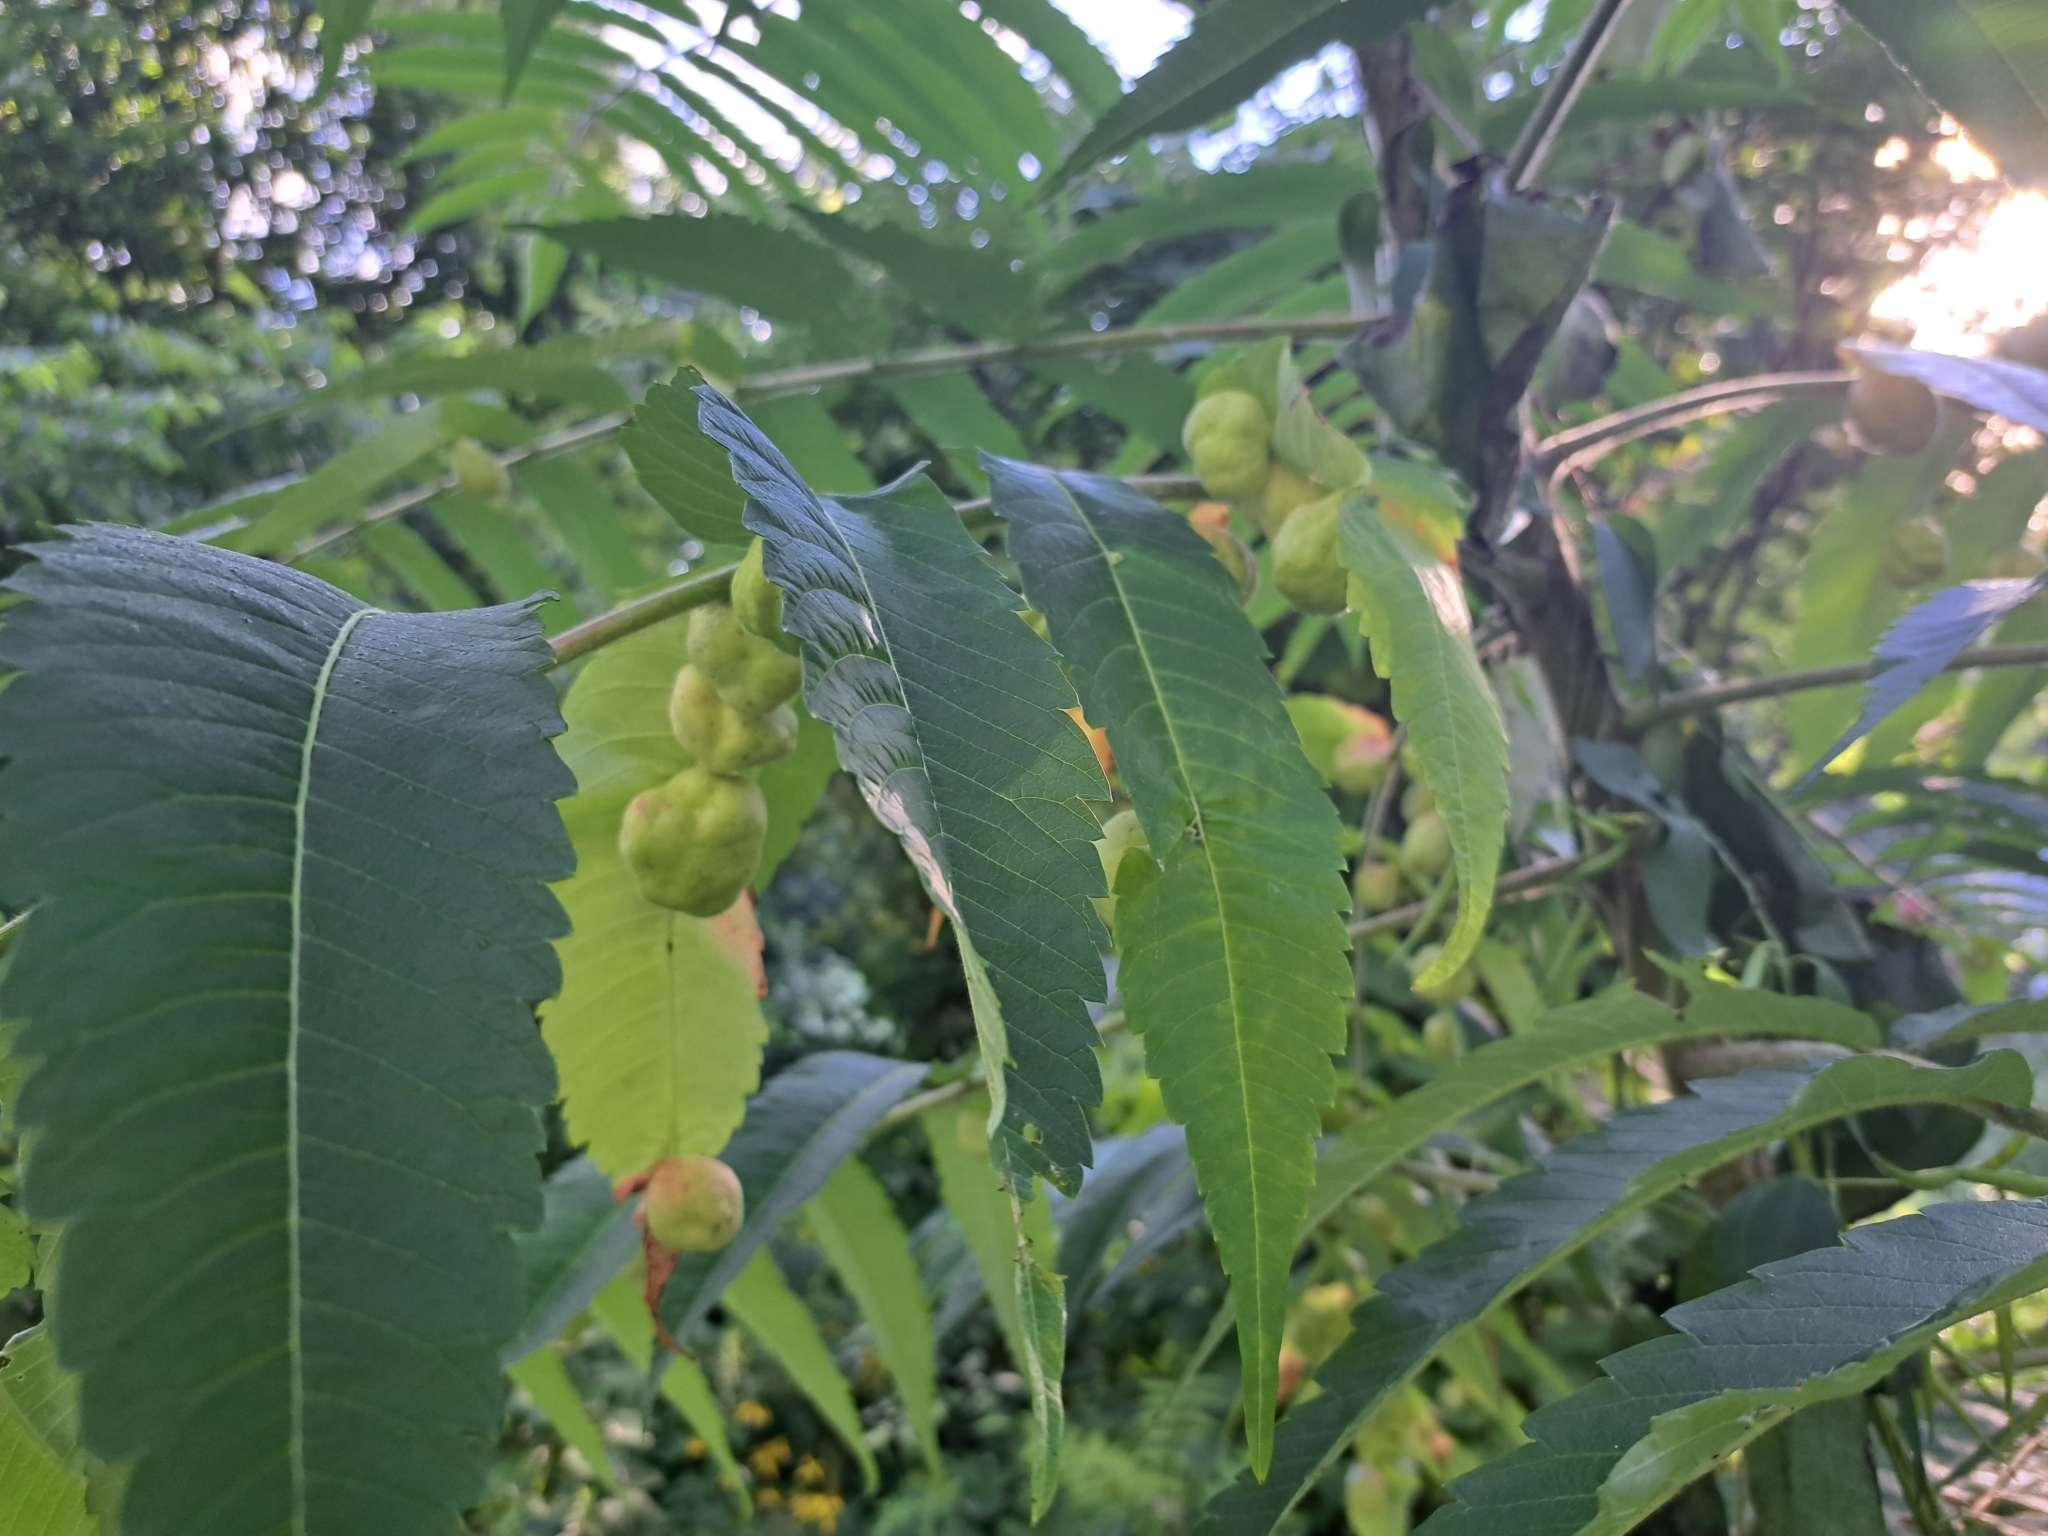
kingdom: Animalia
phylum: Arthropoda
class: Insecta
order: Hemiptera
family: Aphididae
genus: Melaphis
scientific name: Melaphis rhois
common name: Sumac gall aphid
